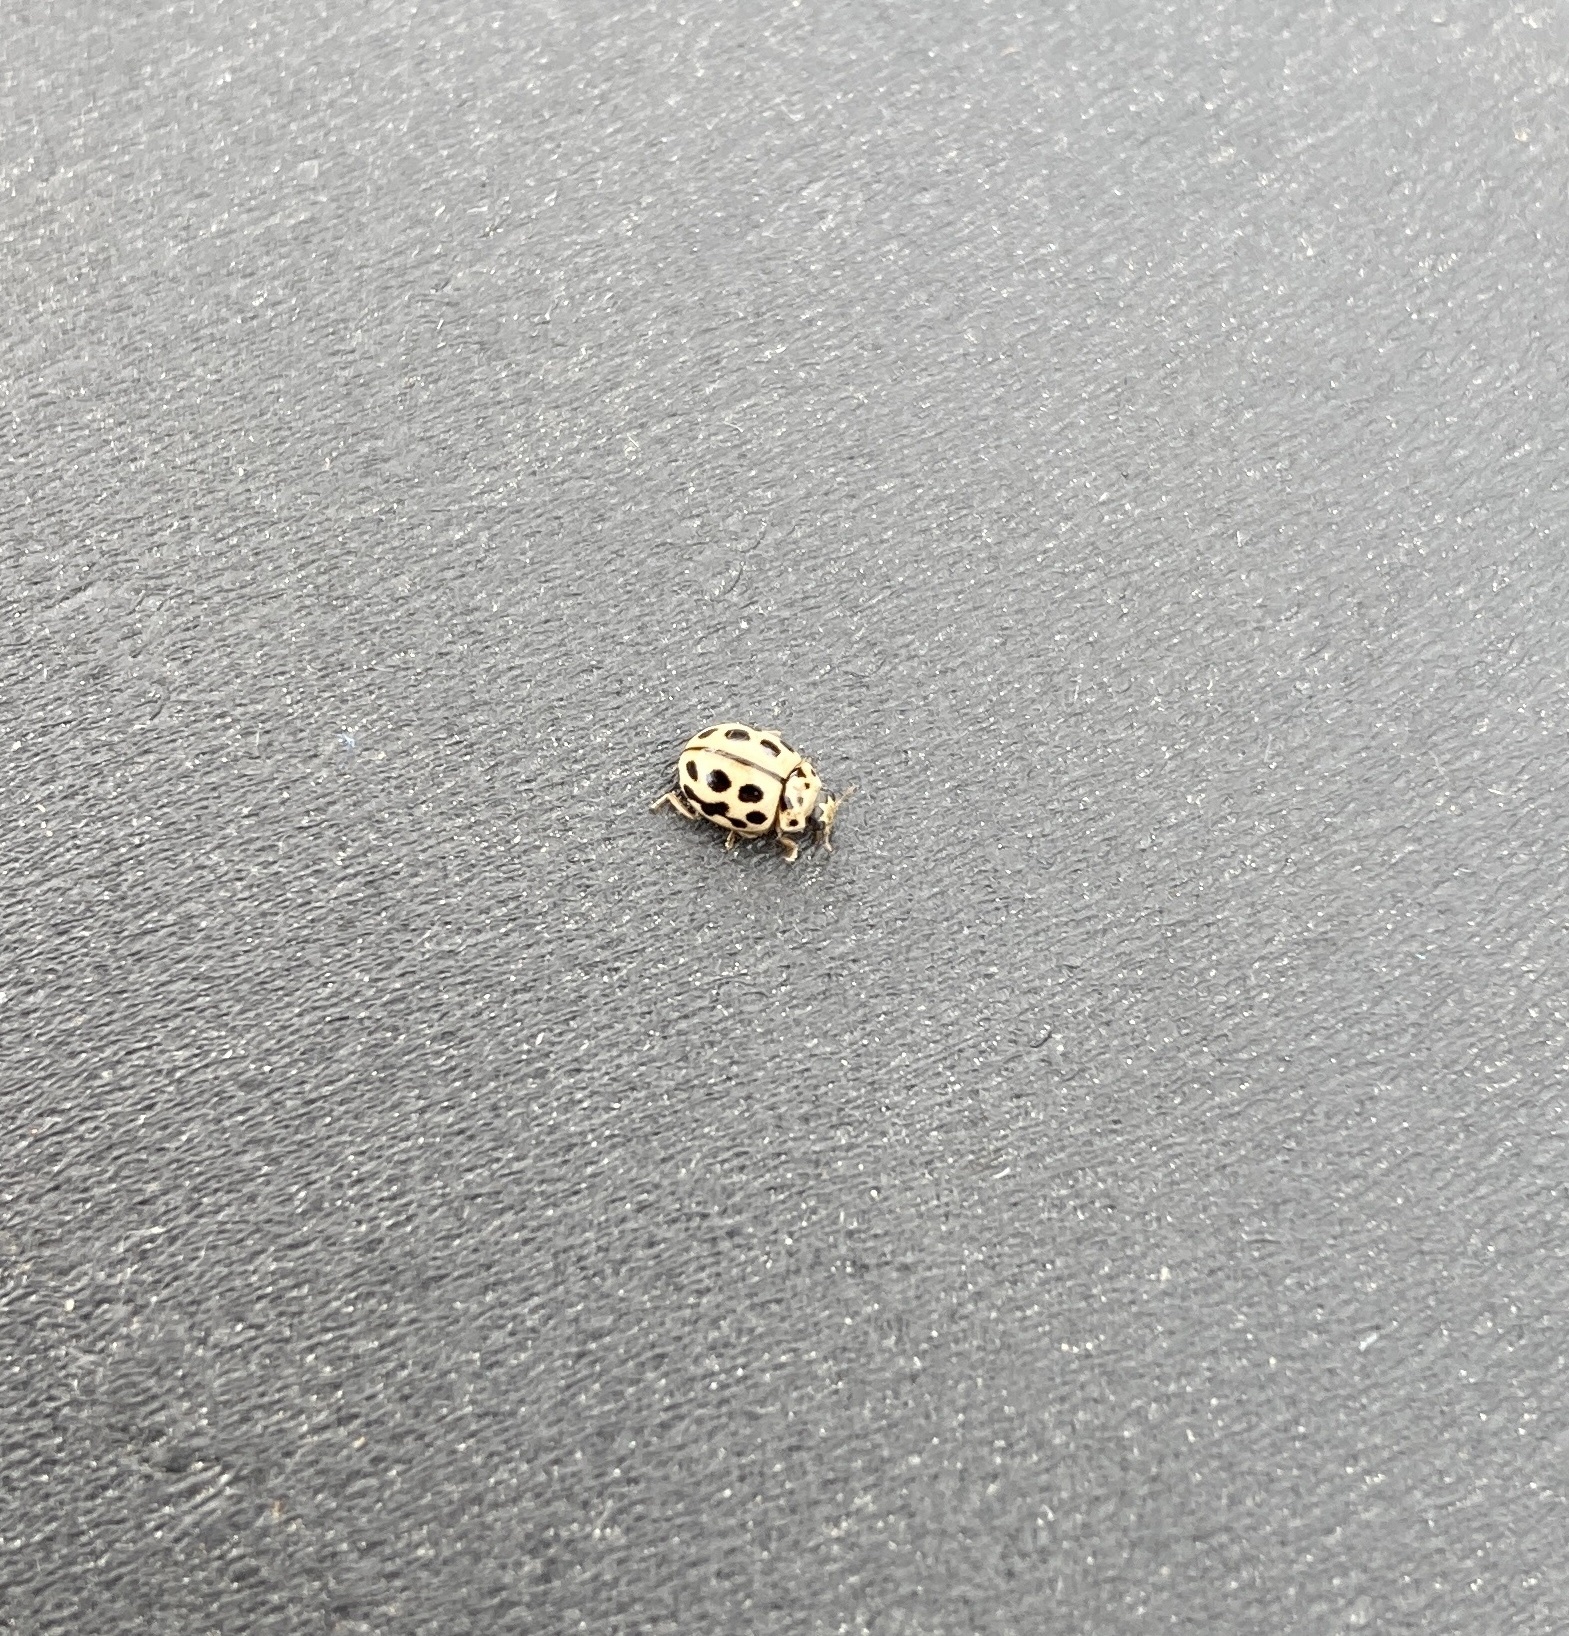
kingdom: Animalia
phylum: Arthropoda
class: Insecta
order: Coleoptera
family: Coccinellidae
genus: Tytthaspis
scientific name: Tytthaspis sedecimpunctata
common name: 16-spot ladybird
